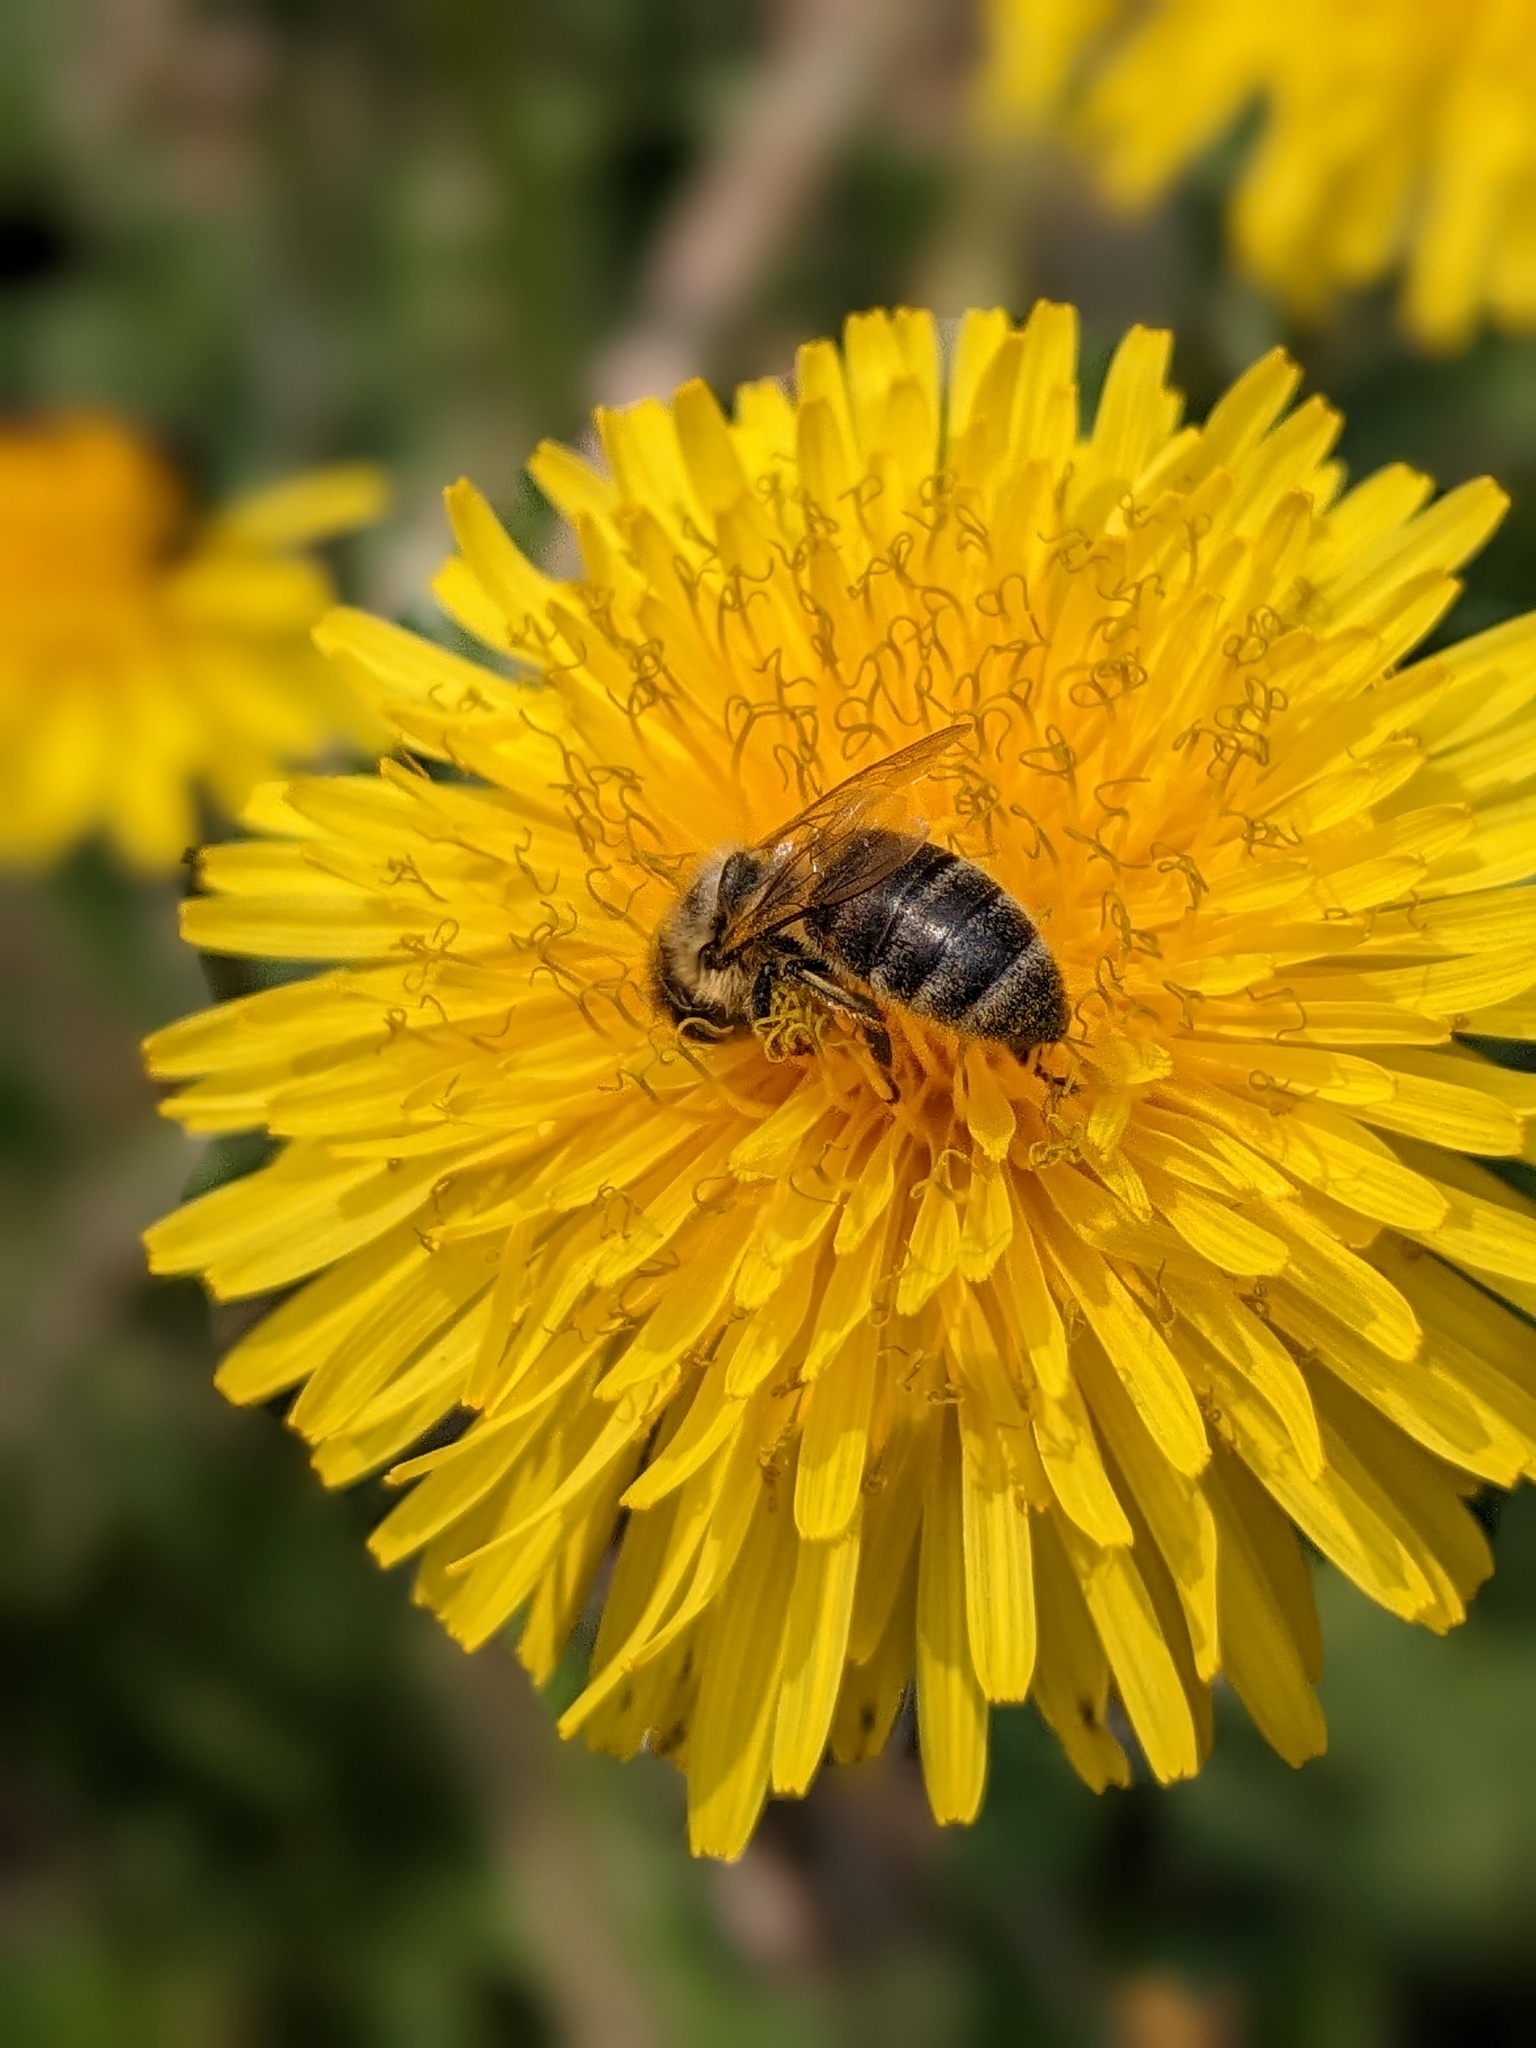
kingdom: Animalia
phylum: Arthropoda
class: Insecta
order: Hymenoptera
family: Apidae
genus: Apis
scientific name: Apis mellifera
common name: Honey bee
